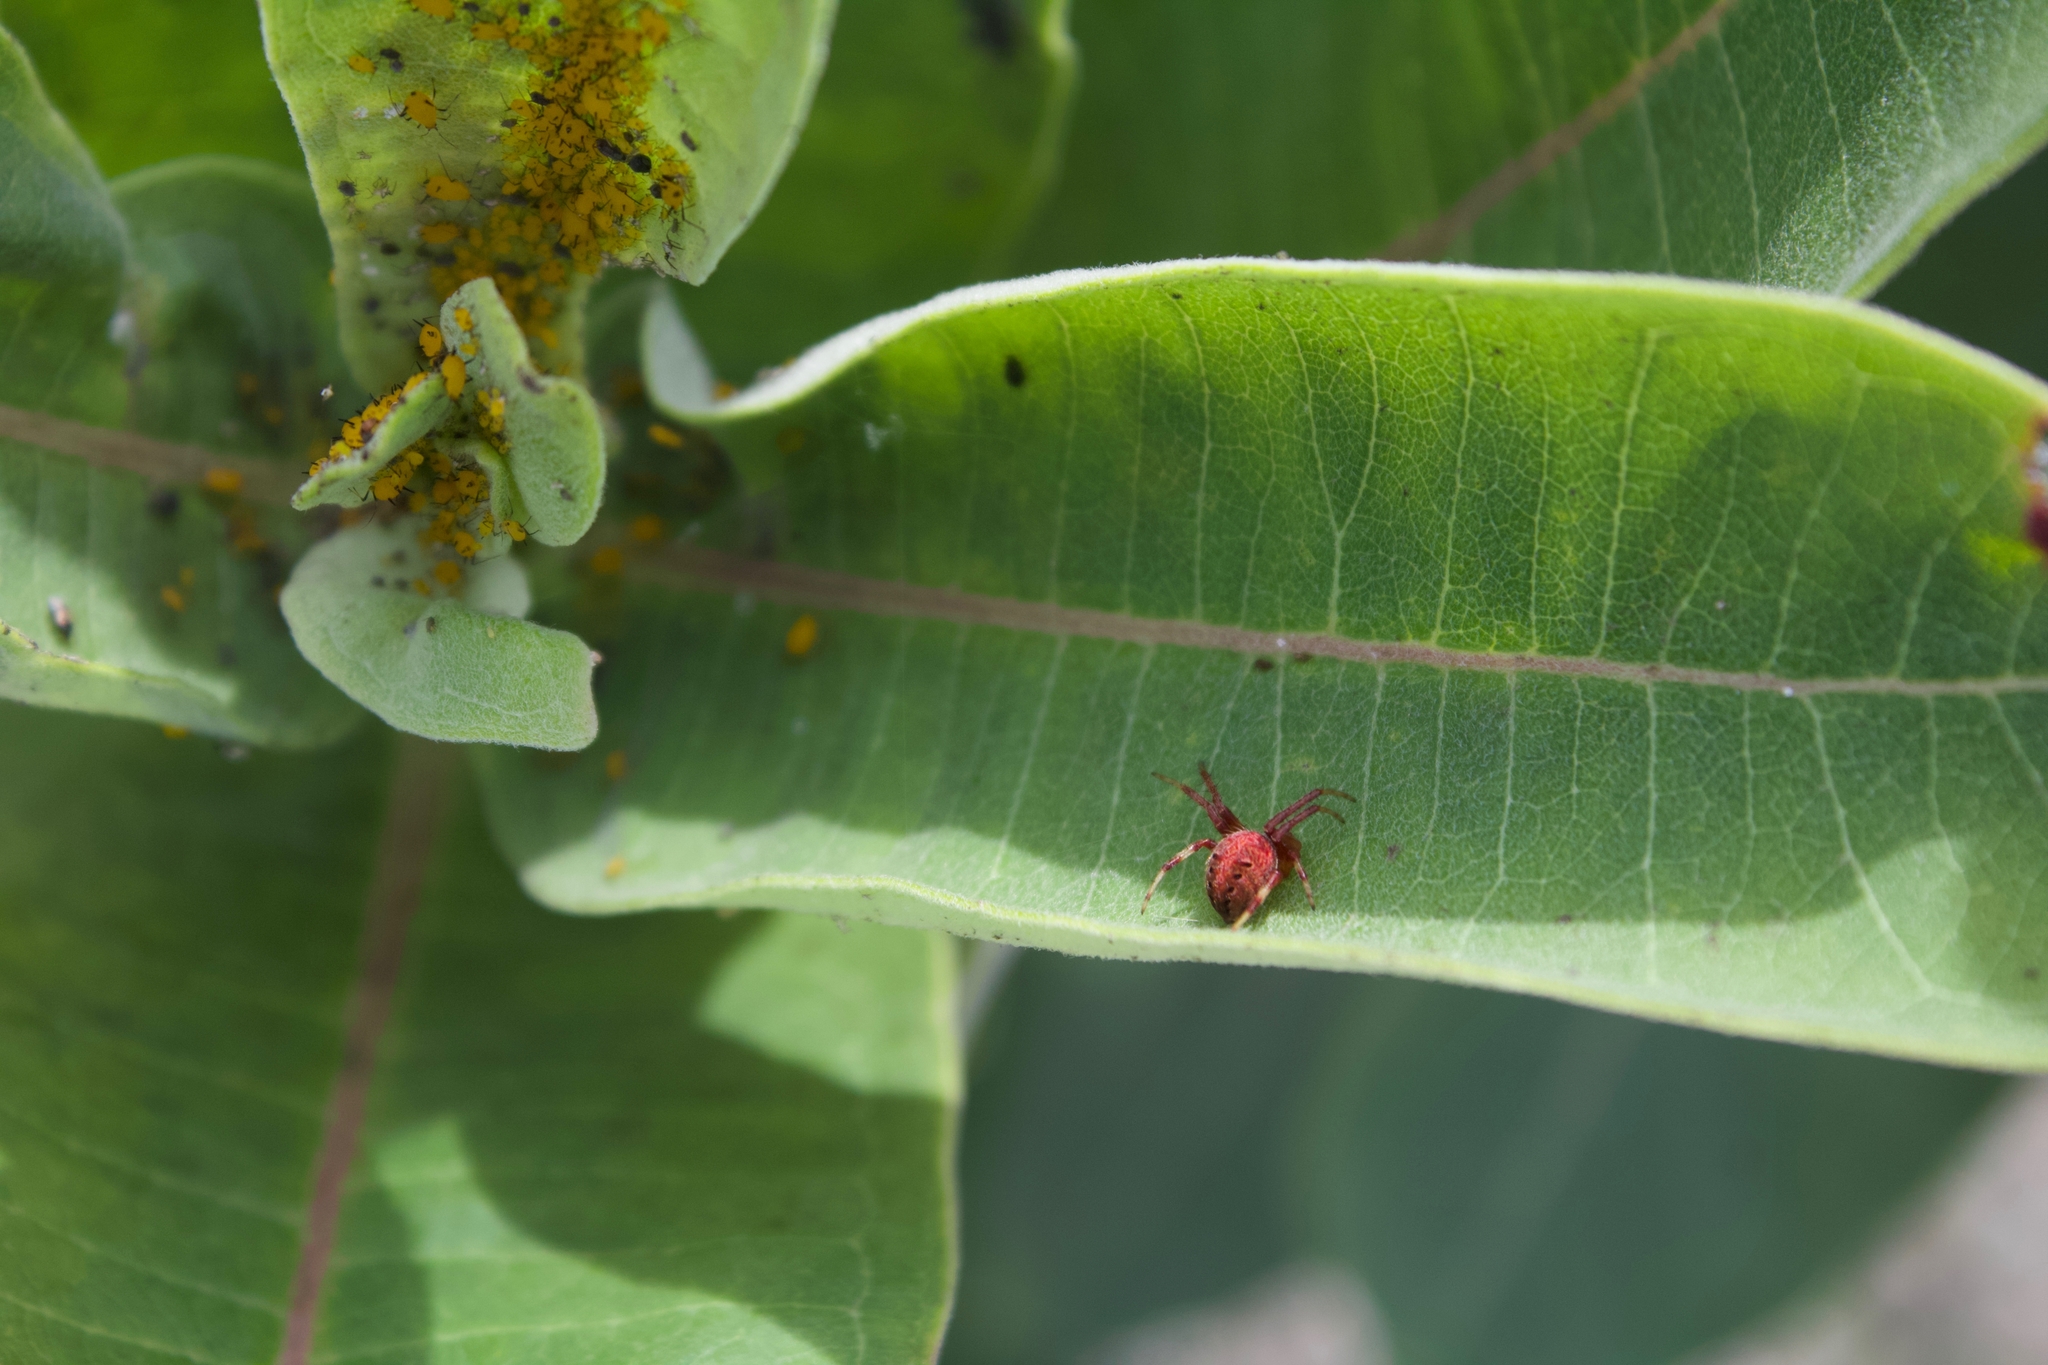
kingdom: Animalia
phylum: Arthropoda
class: Arachnida
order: Araneae
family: Araneidae
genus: Neoscona
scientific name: Neoscona arabesca
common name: Orb weavers
